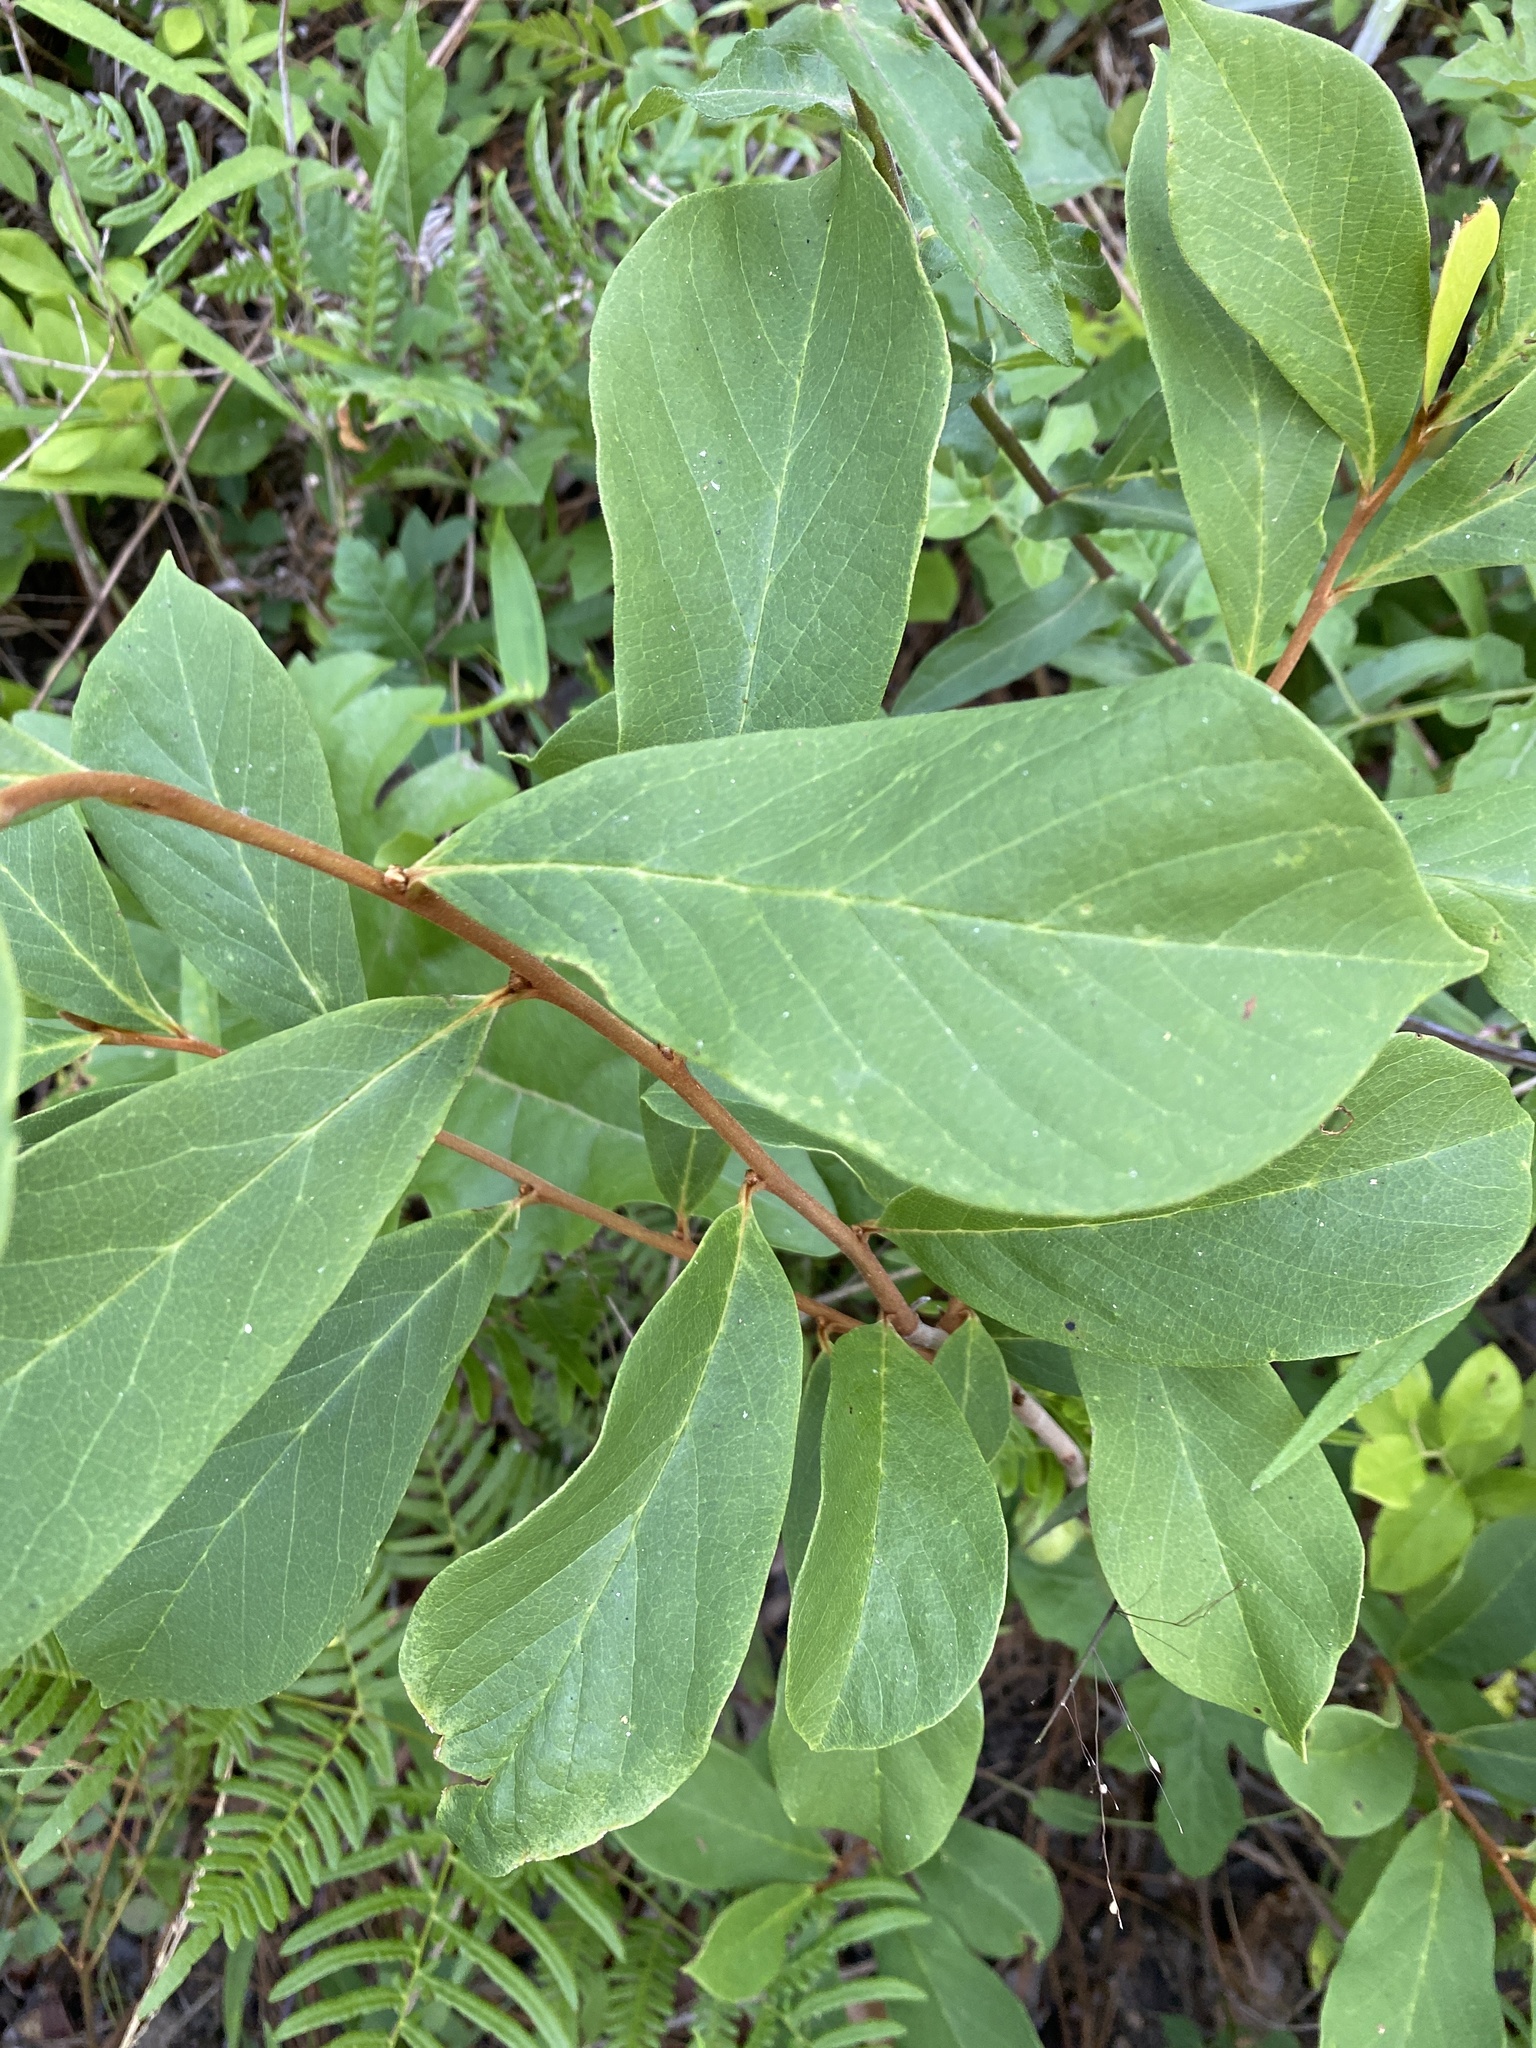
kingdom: Plantae
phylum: Tracheophyta
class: Magnoliopsida
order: Magnoliales
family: Annonaceae
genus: Asimina
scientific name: Asimina parviflora
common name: Dwarf pawpaw
